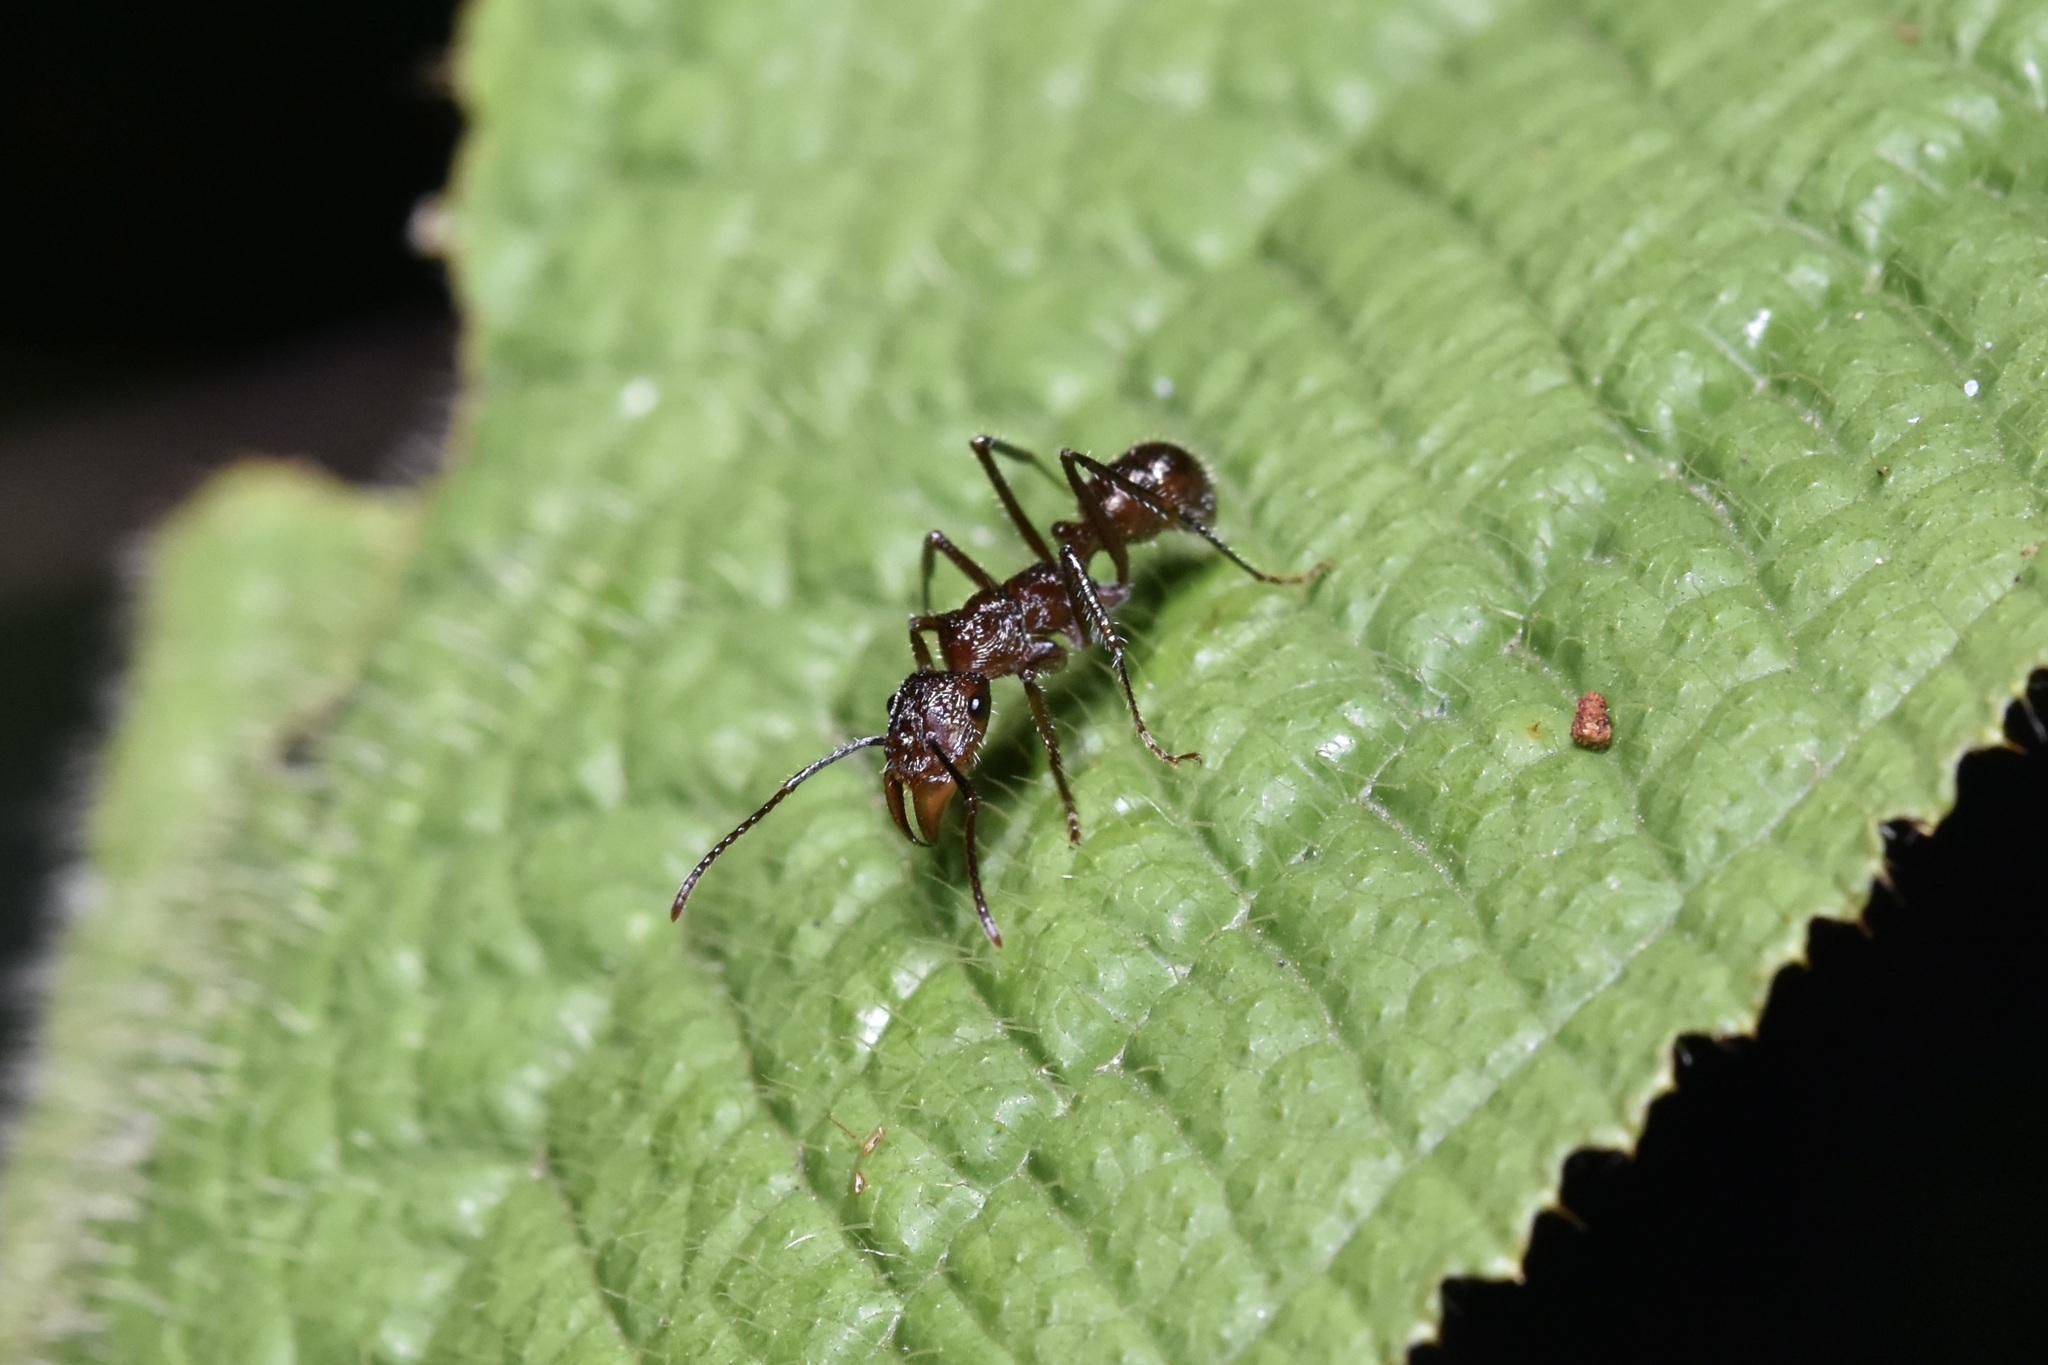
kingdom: Animalia
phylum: Arthropoda
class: Insecta
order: Hymenoptera
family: Formicidae
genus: Ectatomma
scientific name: Ectatomma tuberculatum
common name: Ant
